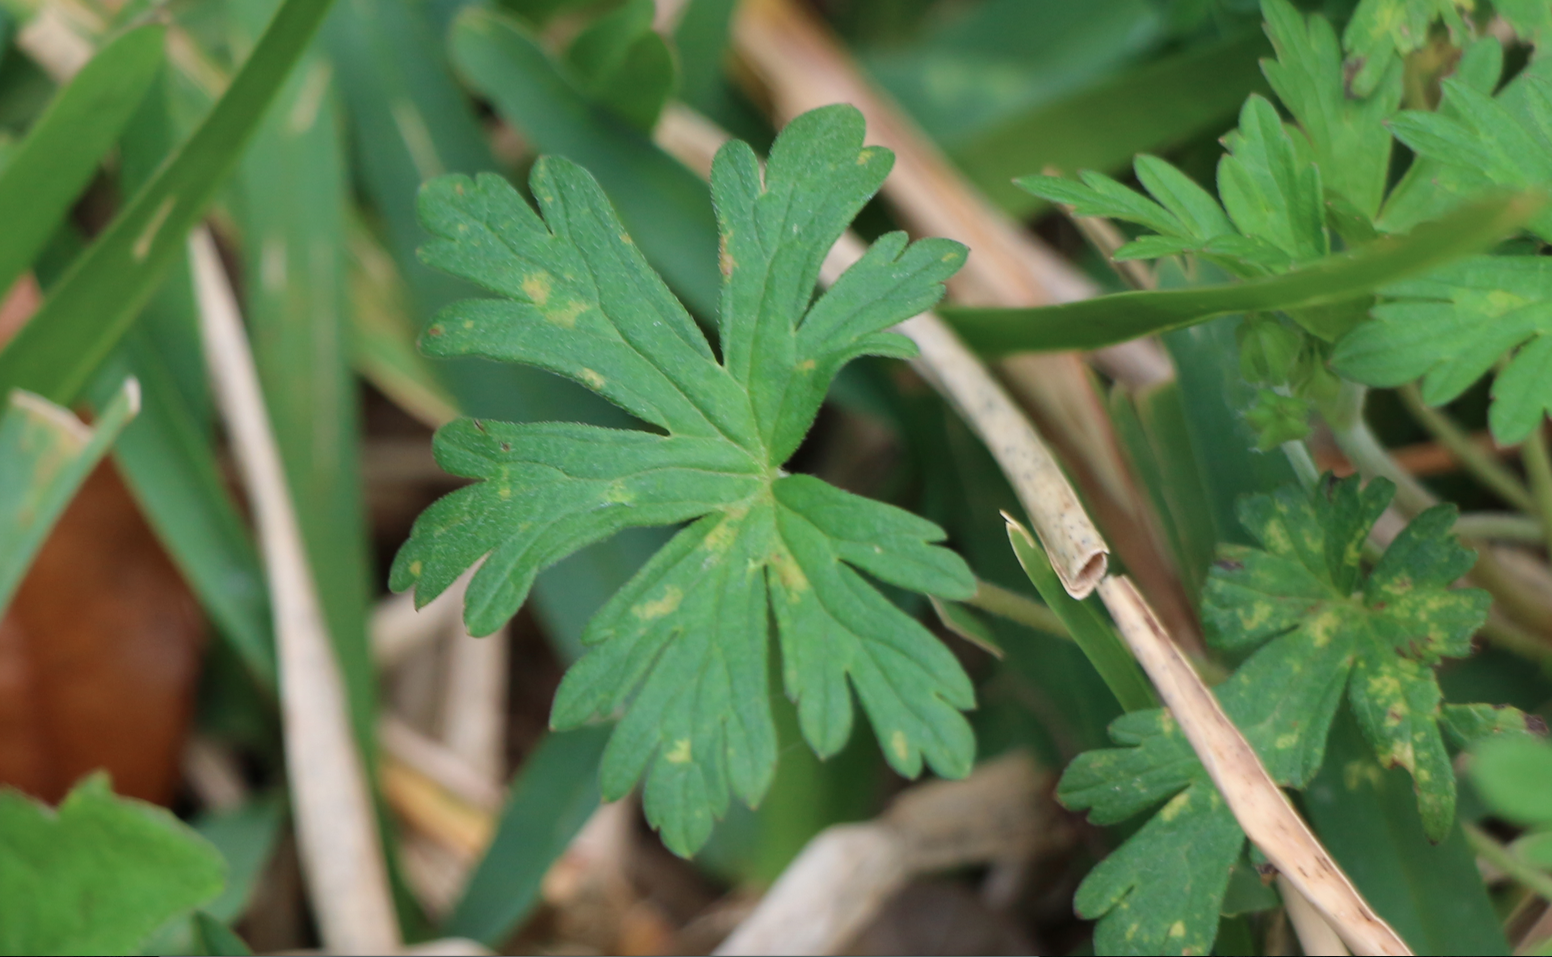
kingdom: Plantae
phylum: Tracheophyta
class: Magnoliopsida
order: Geraniales
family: Geraniaceae
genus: Geranium
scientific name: Geranium carolinianum
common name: Carolina crane's-bill
